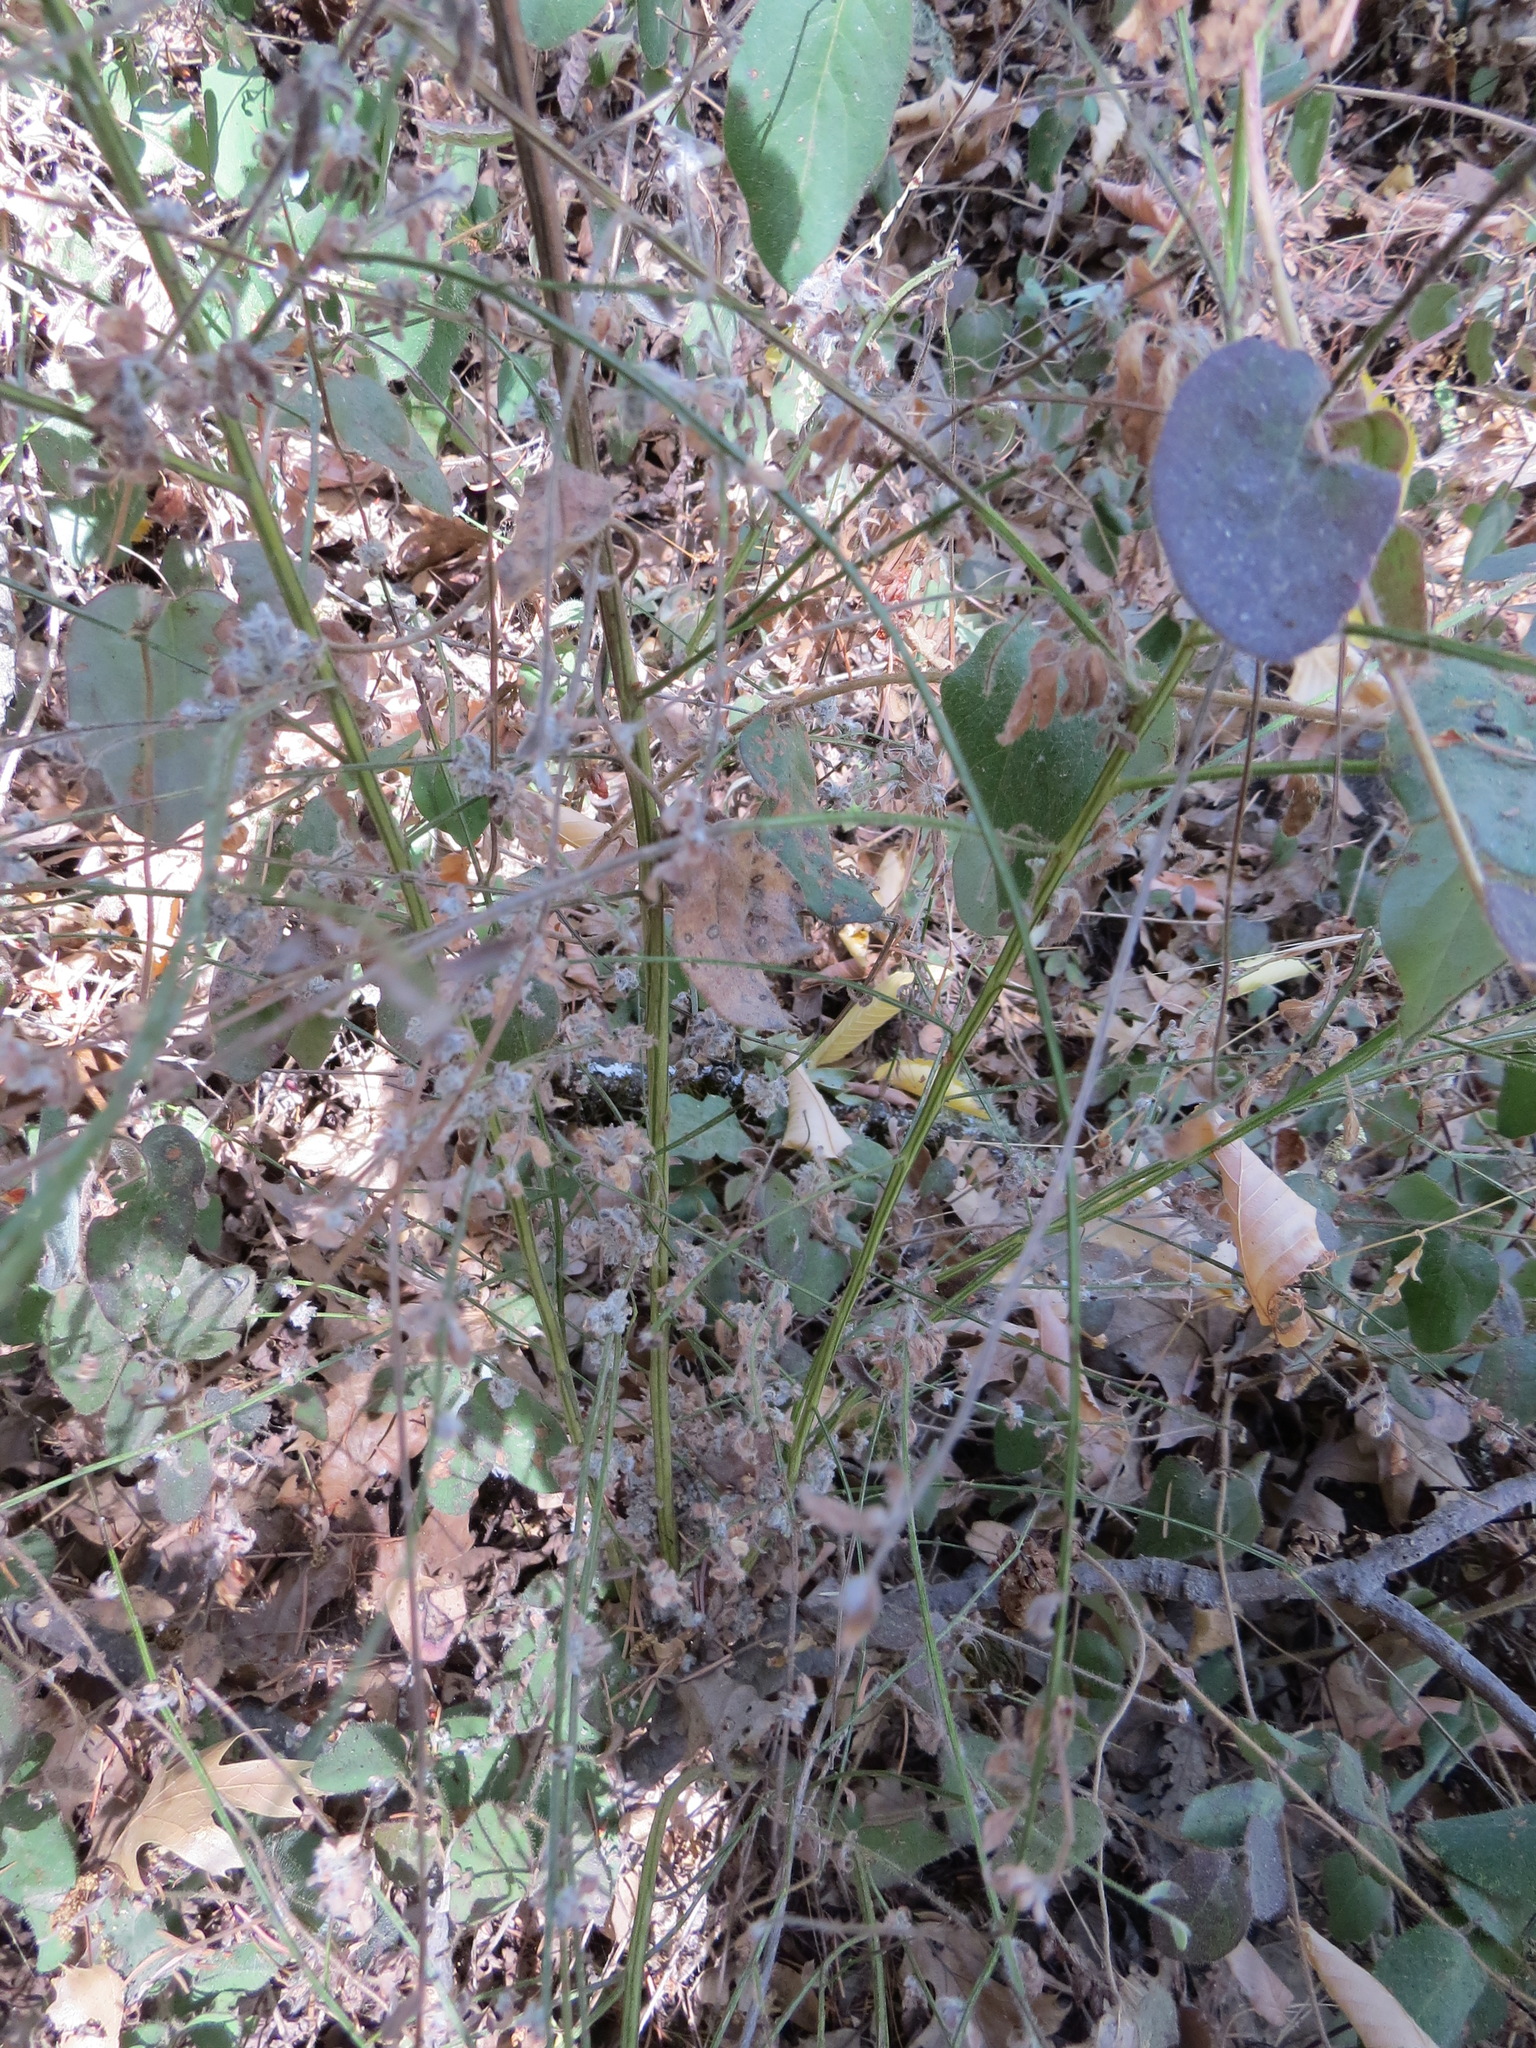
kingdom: Animalia
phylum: Arthropoda
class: Arachnida
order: Trombidiformes
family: Eriophyidae
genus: Aceria
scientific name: Aceria genistae
